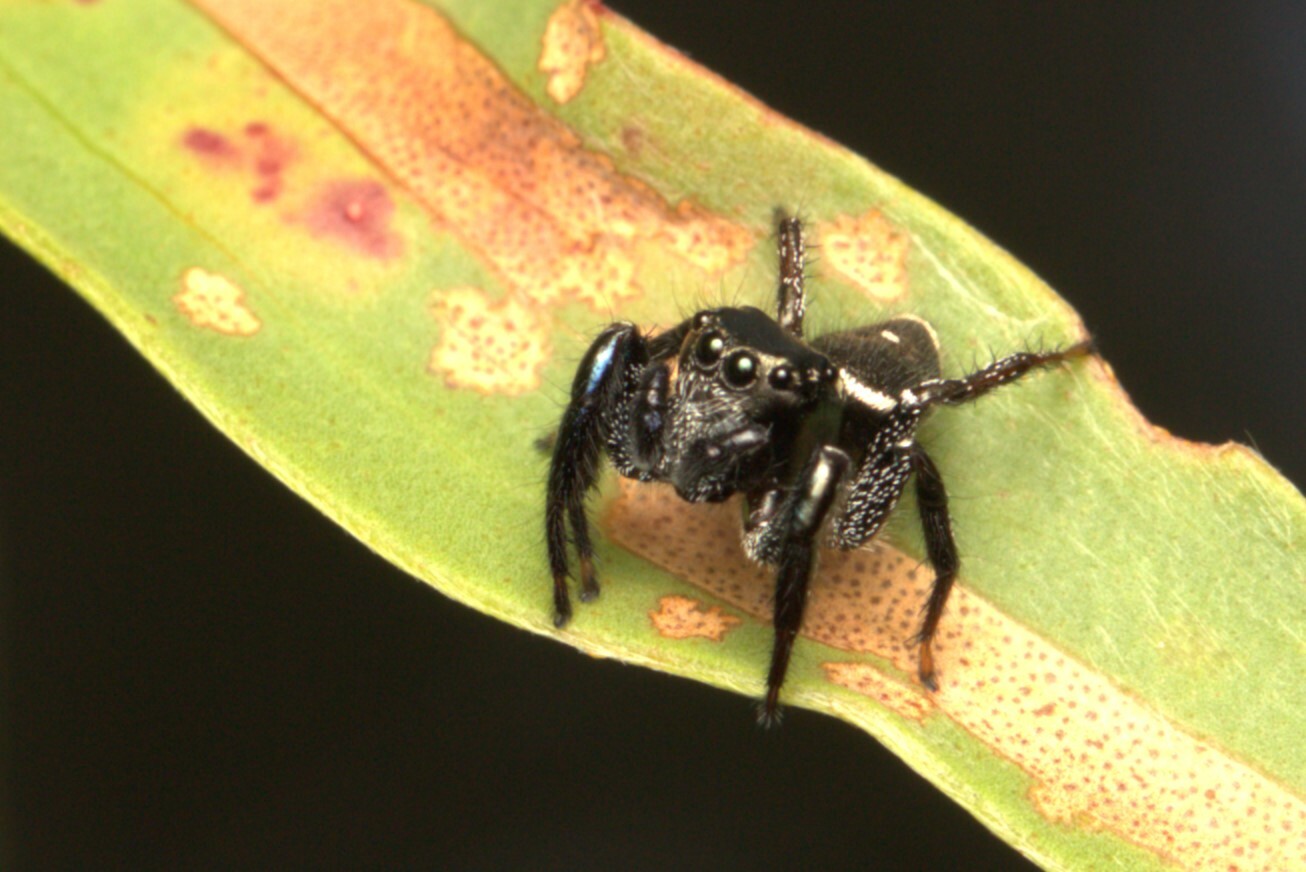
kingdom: Animalia
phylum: Arthropoda
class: Arachnida
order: Araneae
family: Salticidae
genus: Zenodorus
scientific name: Zenodorus orbiculatus
